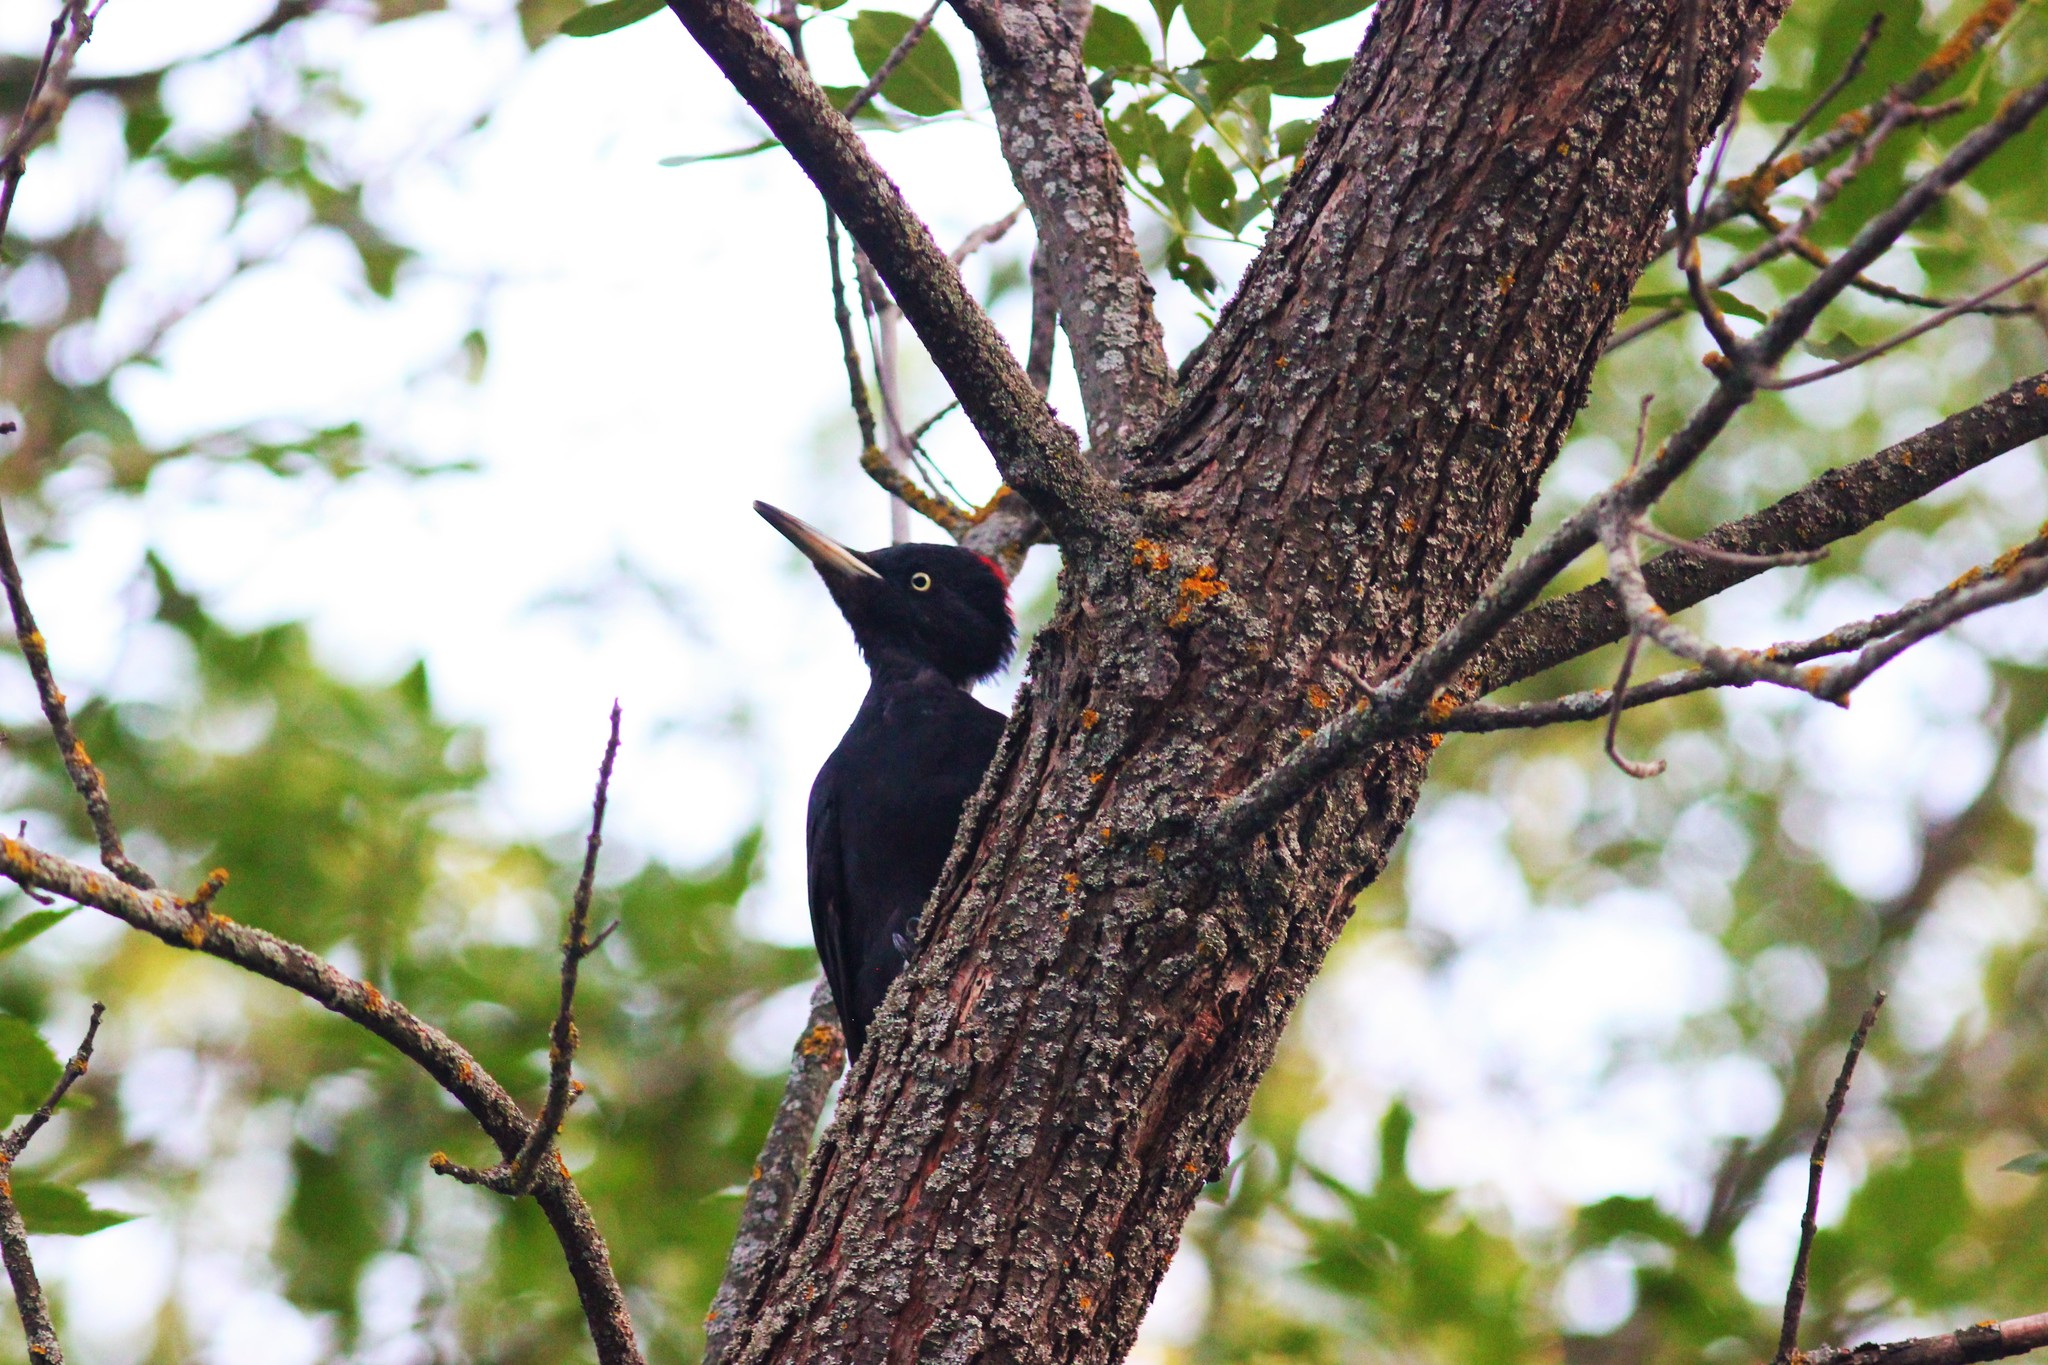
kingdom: Animalia
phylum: Chordata
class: Aves
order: Piciformes
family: Picidae
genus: Dryocopus
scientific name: Dryocopus martius
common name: Black woodpecker
